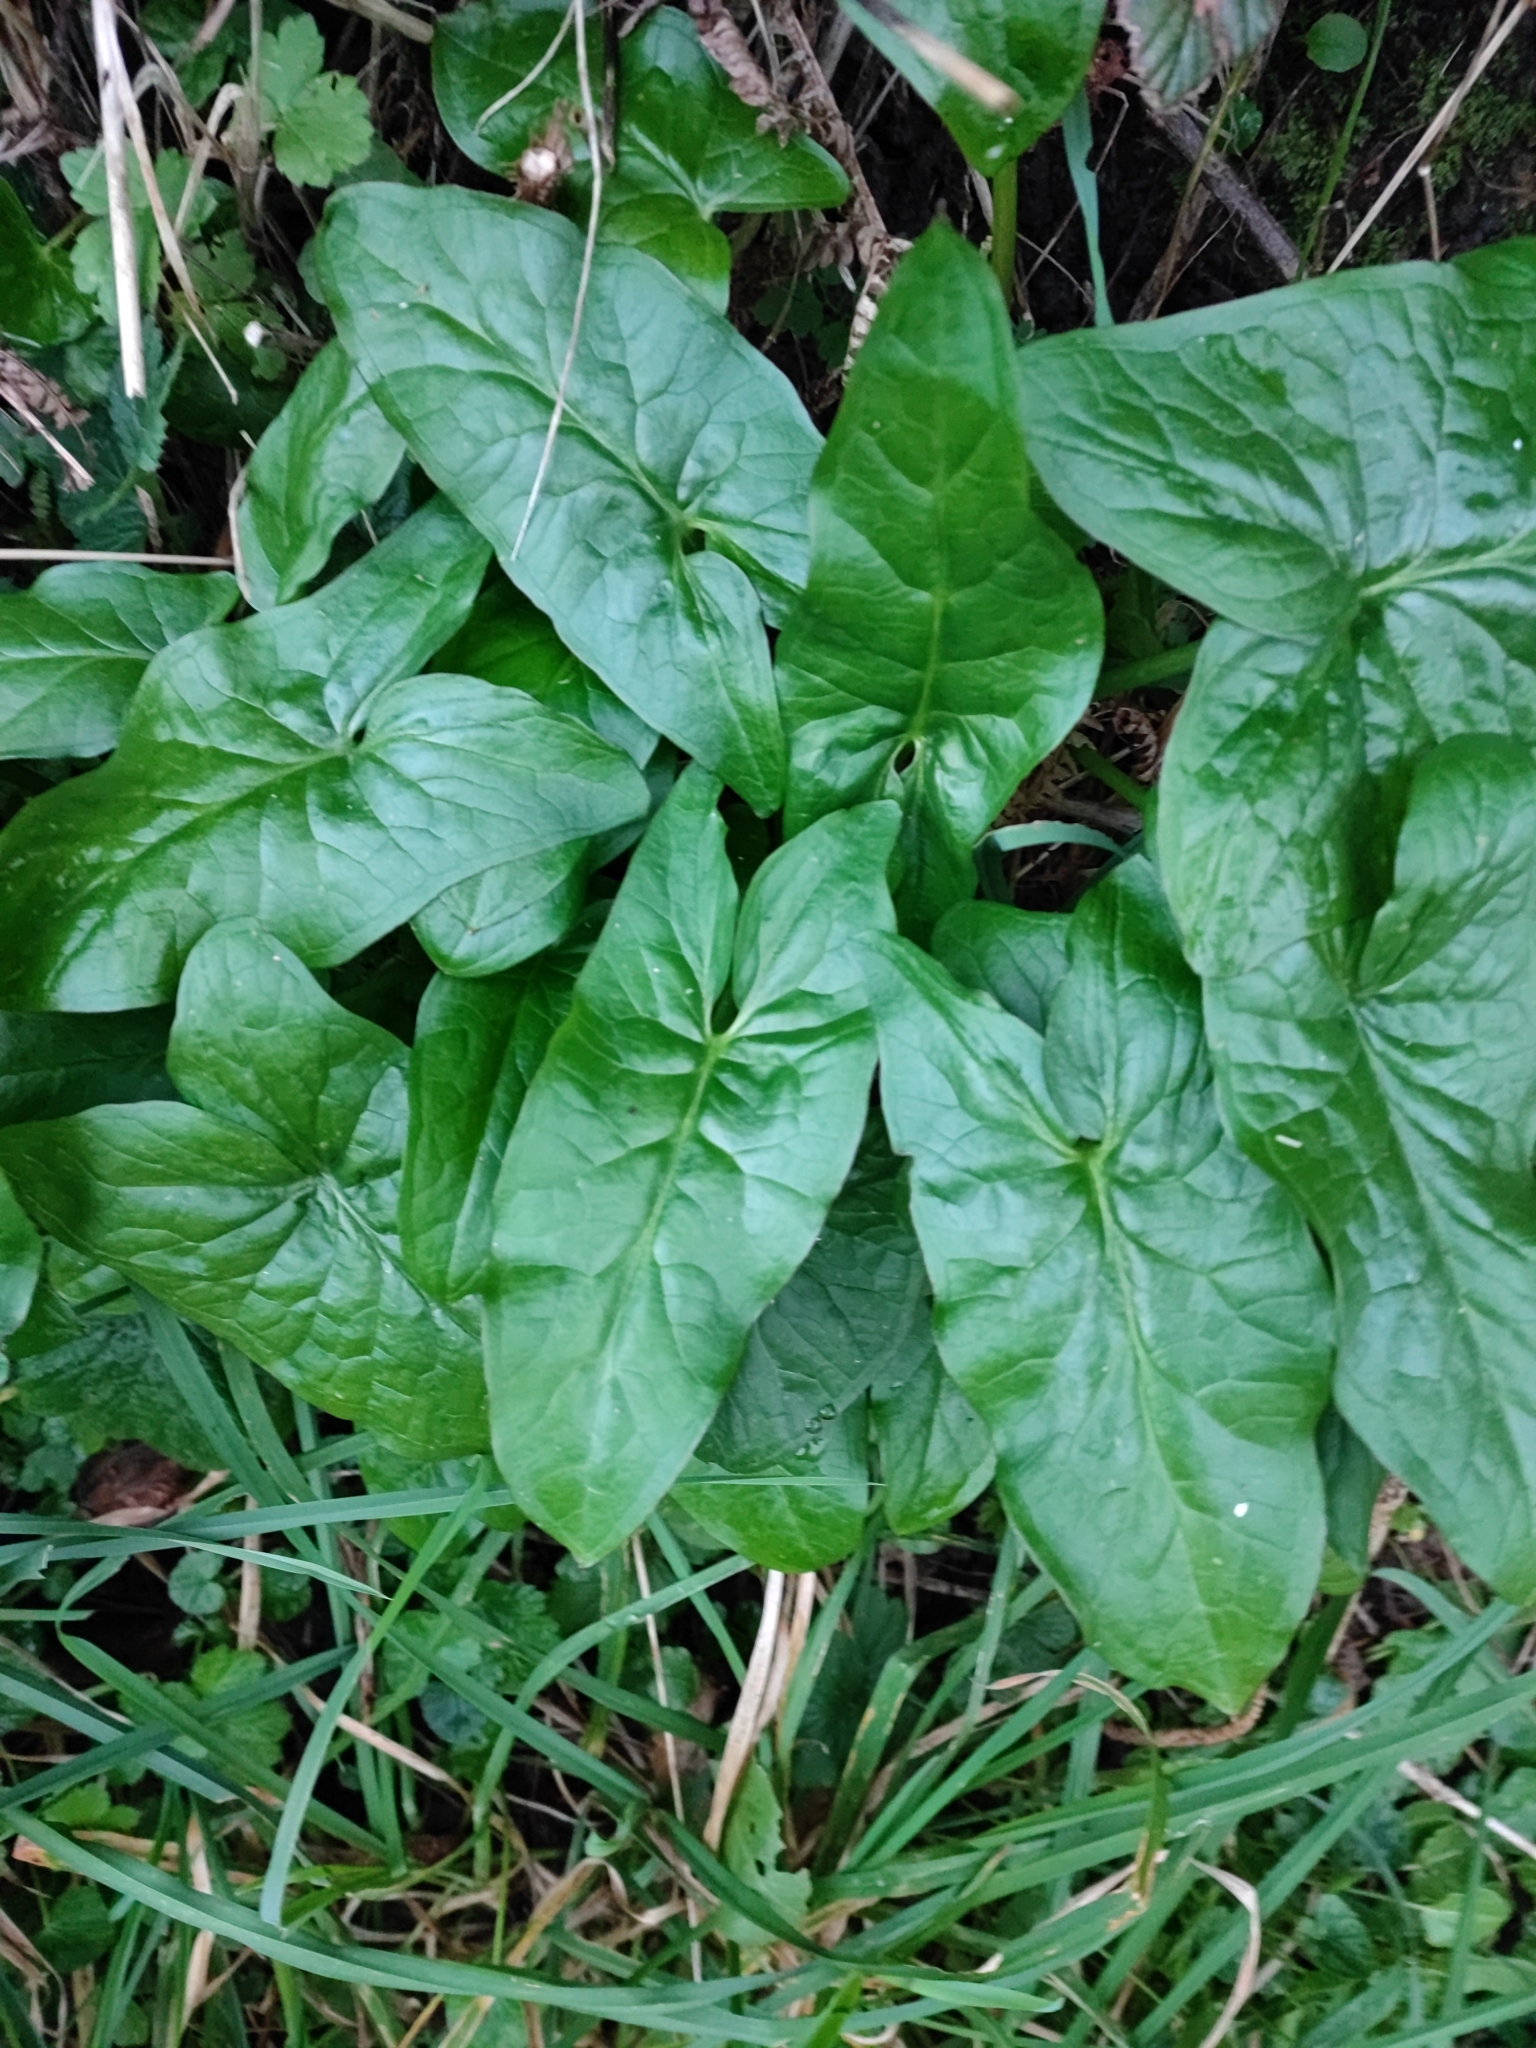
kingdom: Plantae
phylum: Tracheophyta
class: Liliopsida
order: Alismatales
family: Araceae
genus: Arum
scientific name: Arum maculatum
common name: Lords-and-ladies
